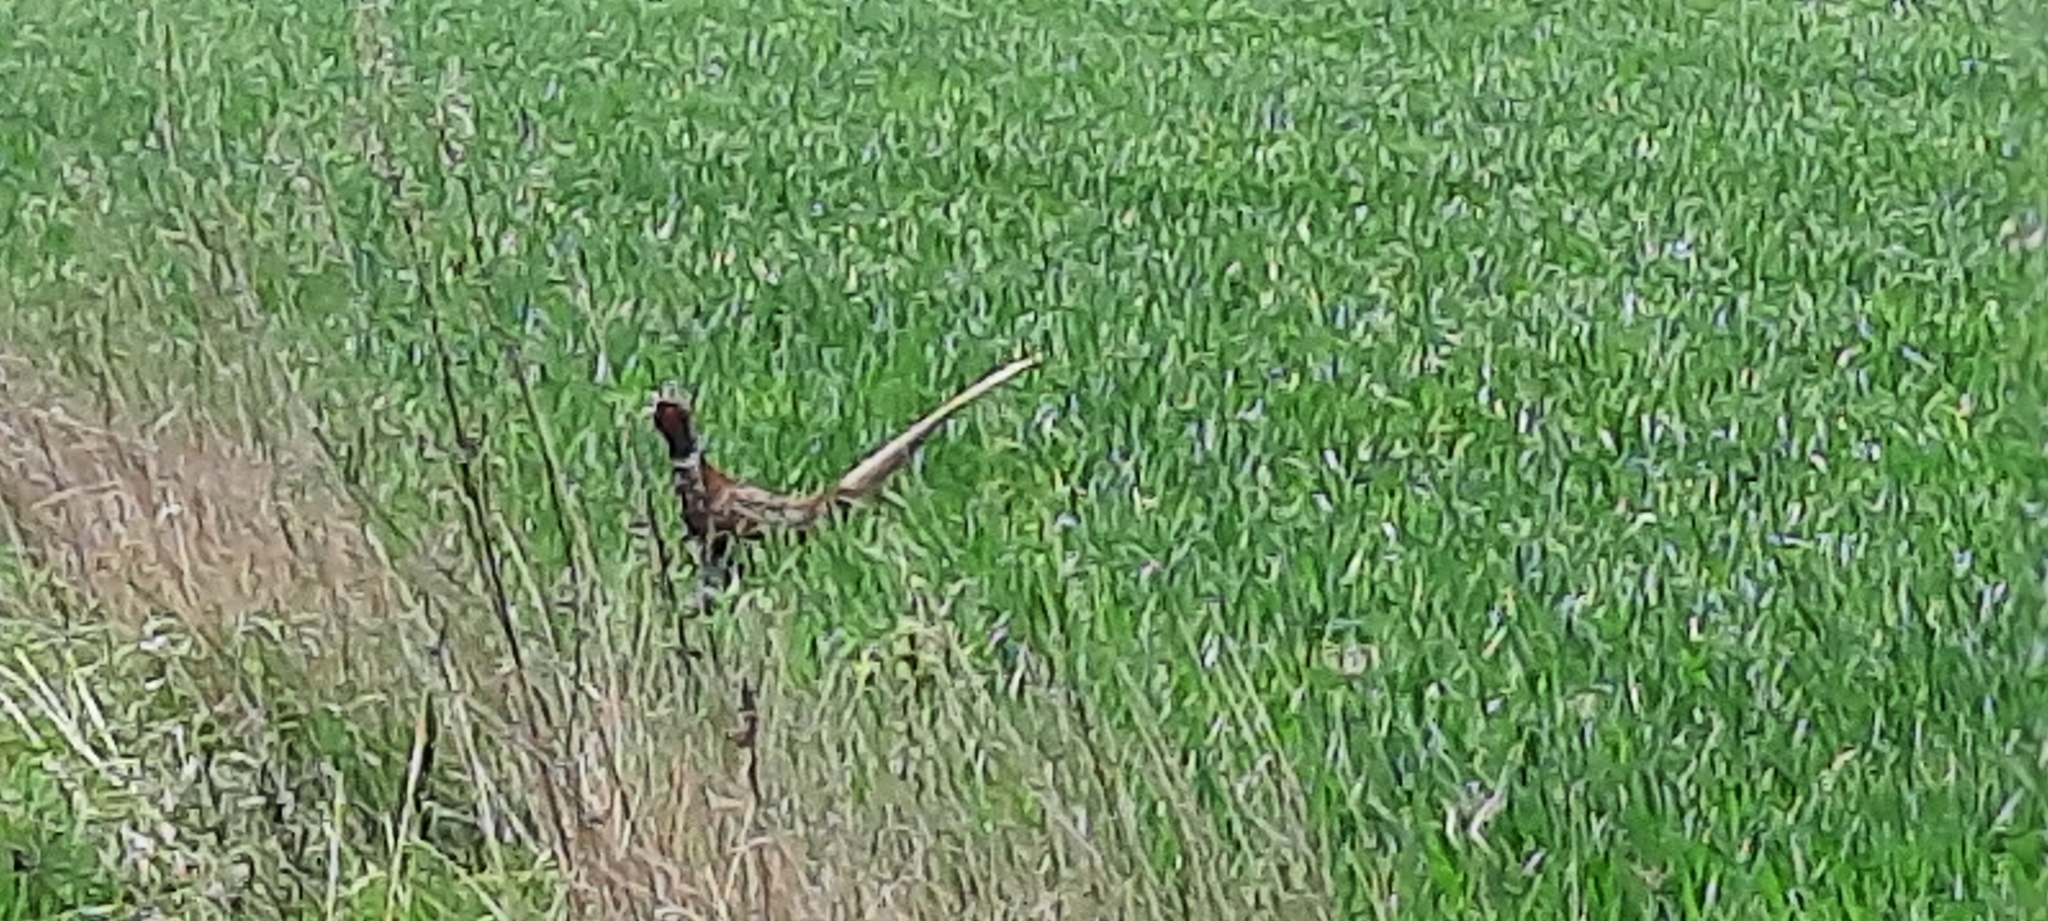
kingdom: Animalia
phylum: Chordata
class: Aves
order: Galliformes
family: Phasianidae
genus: Phasianus
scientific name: Phasianus colchicus
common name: Common pheasant
